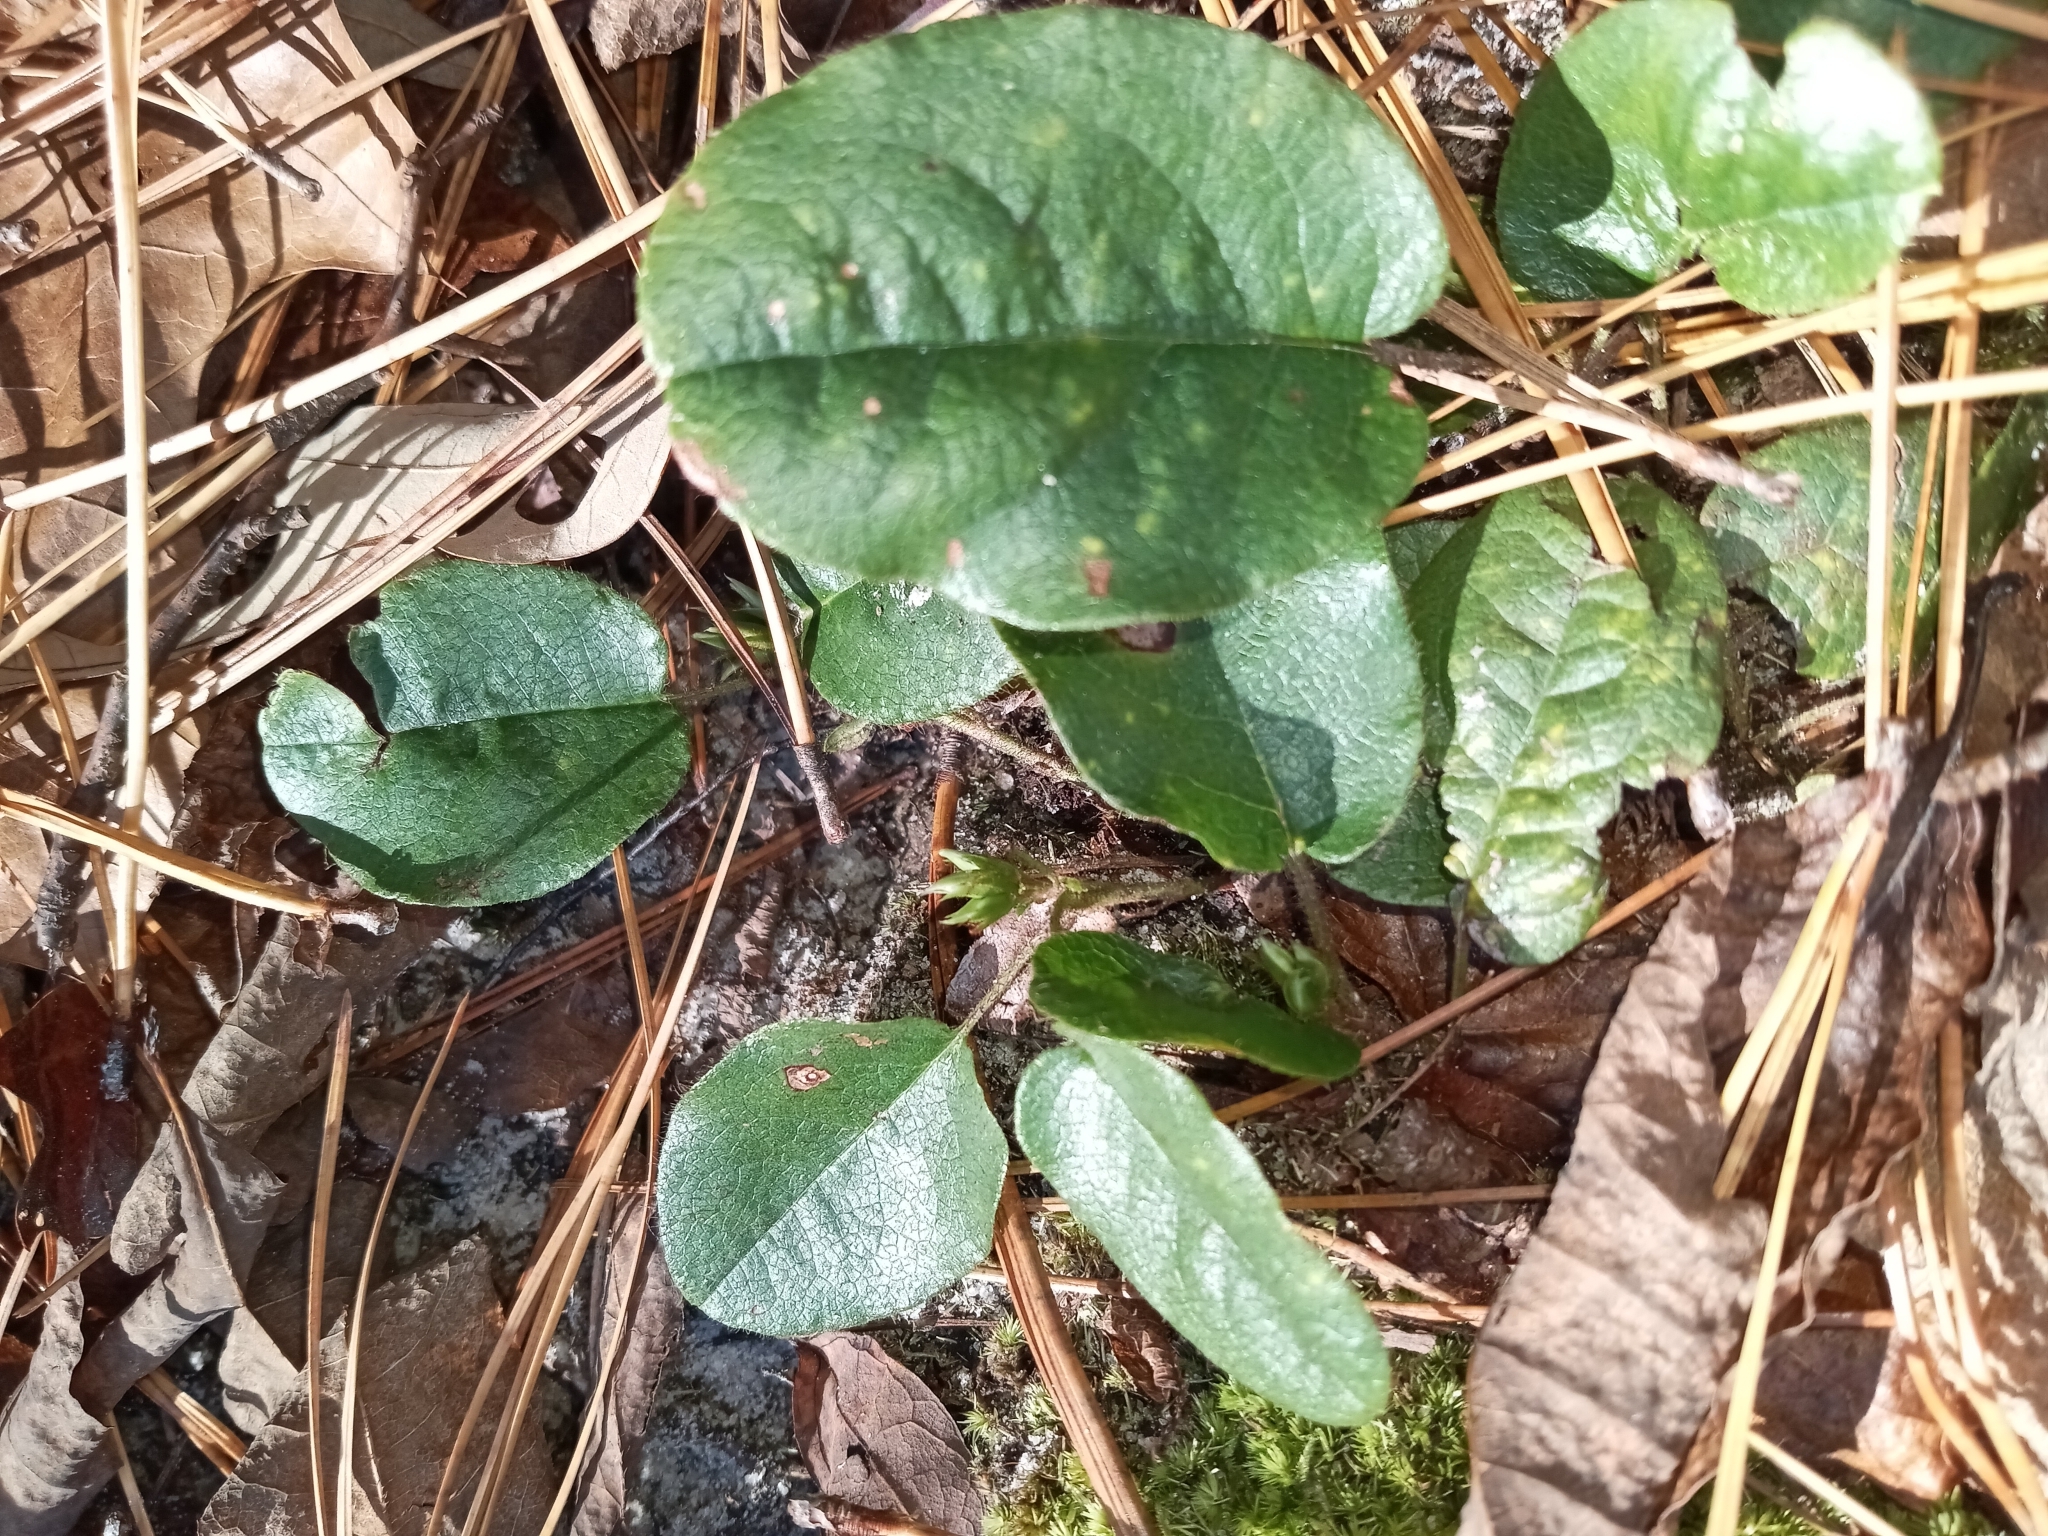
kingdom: Plantae
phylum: Tracheophyta
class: Magnoliopsida
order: Ericales
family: Ericaceae
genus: Epigaea
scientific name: Epigaea repens
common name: Gravelroot
